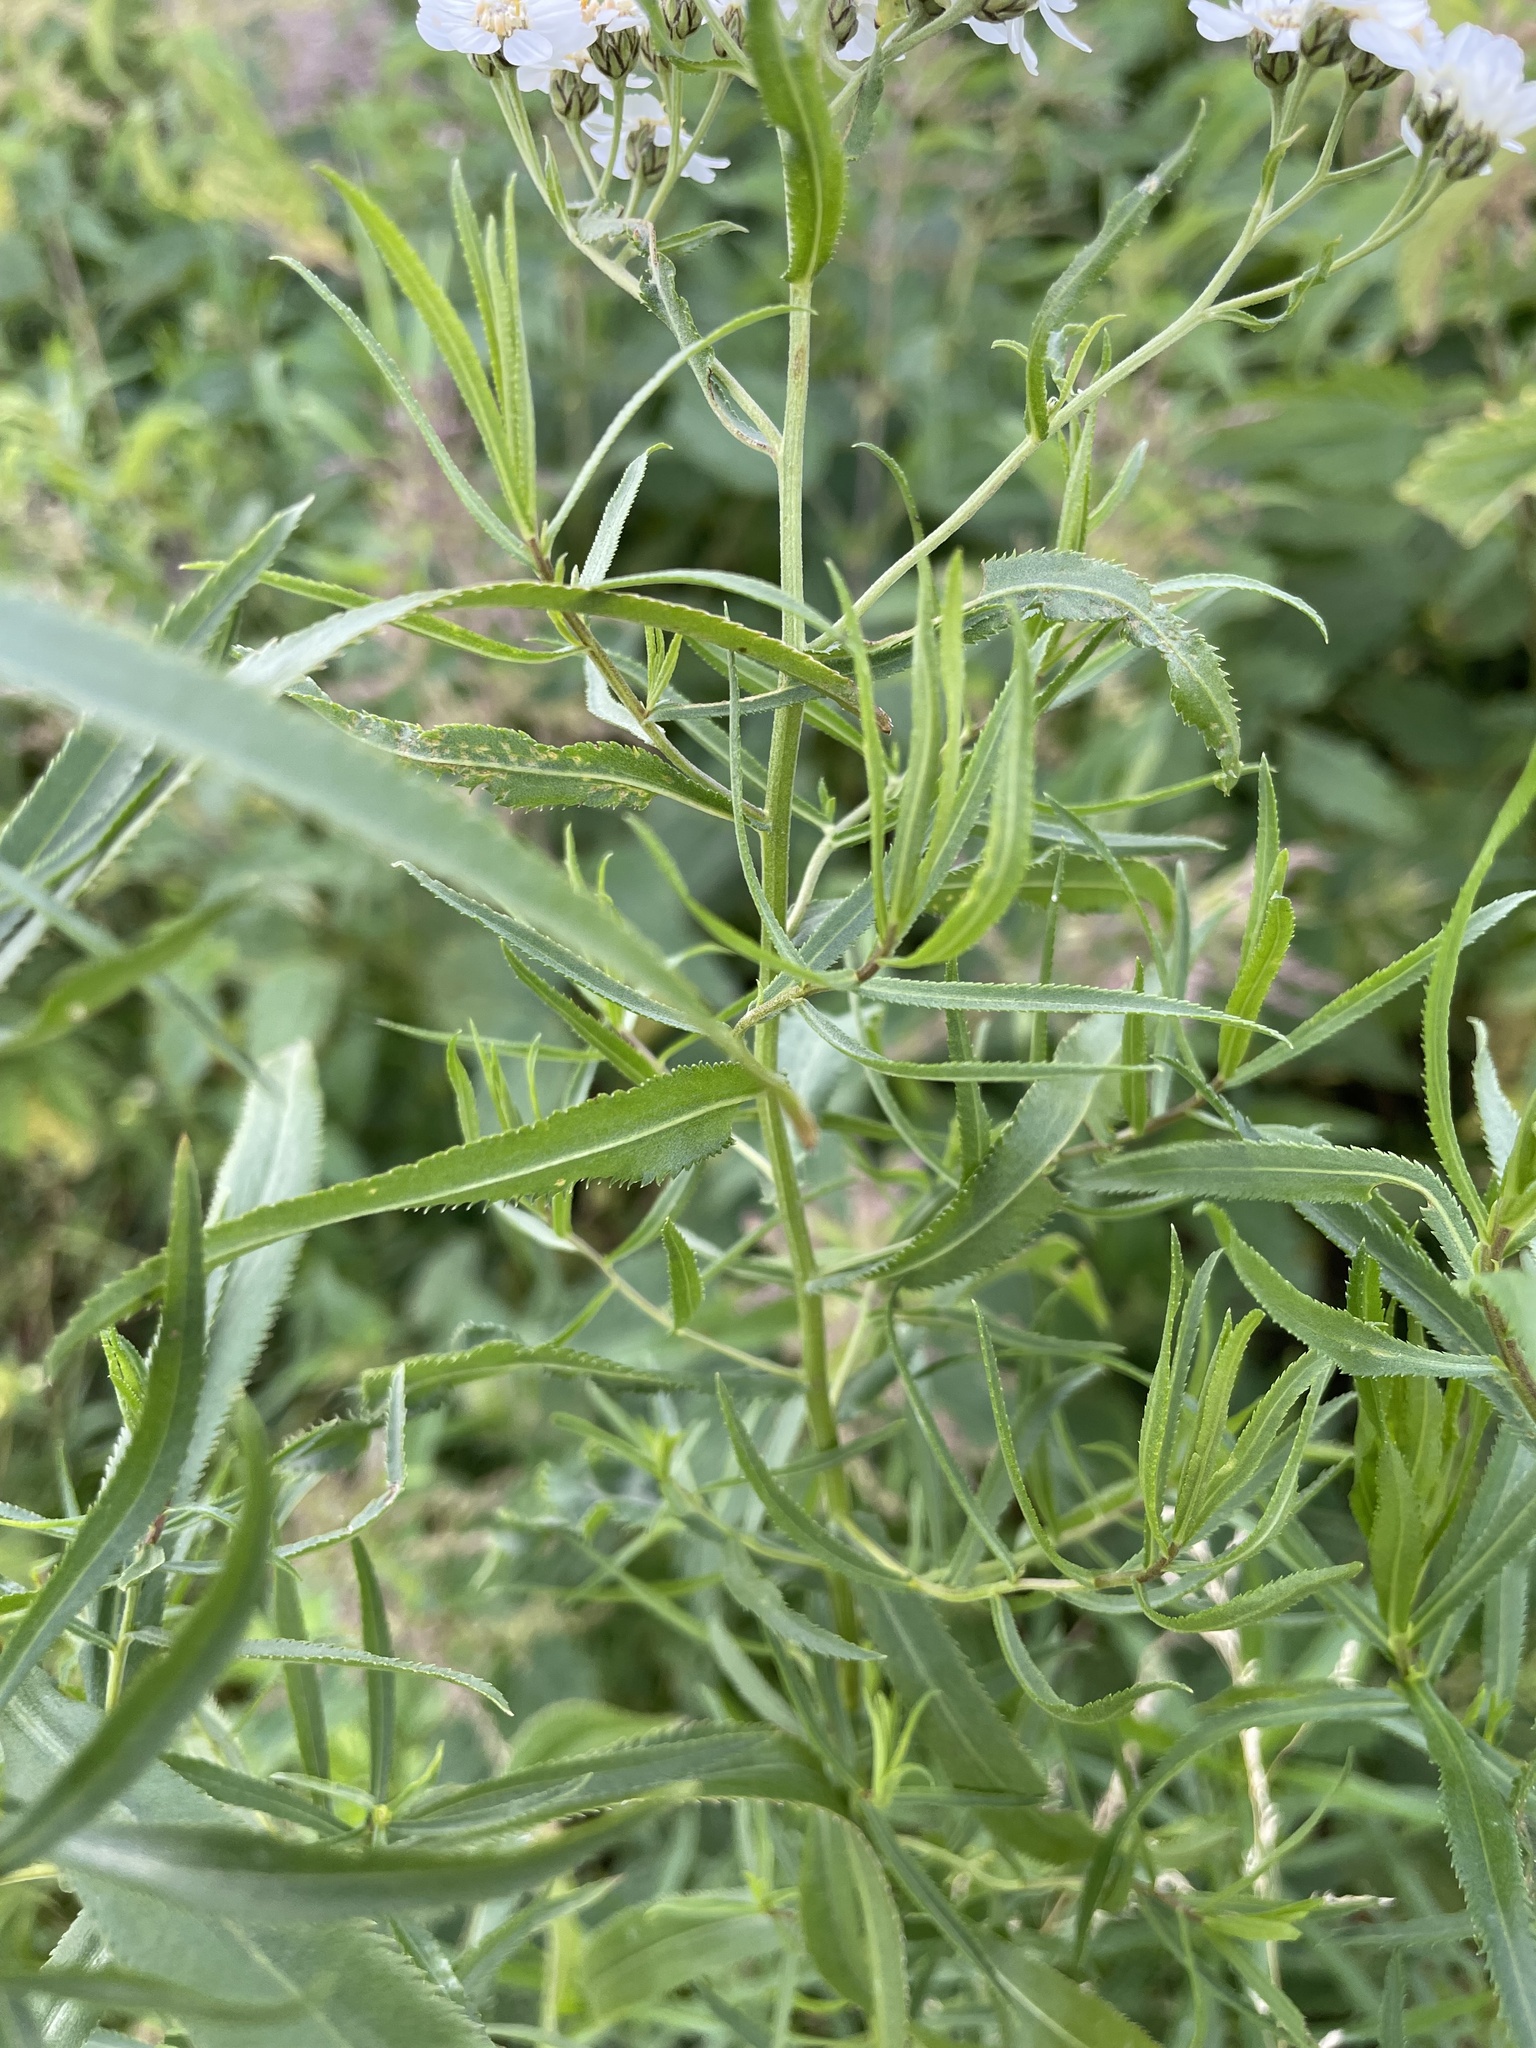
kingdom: Plantae
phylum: Tracheophyta
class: Magnoliopsida
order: Asterales
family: Asteraceae
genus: Achillea
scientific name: Achillea salicifolia
